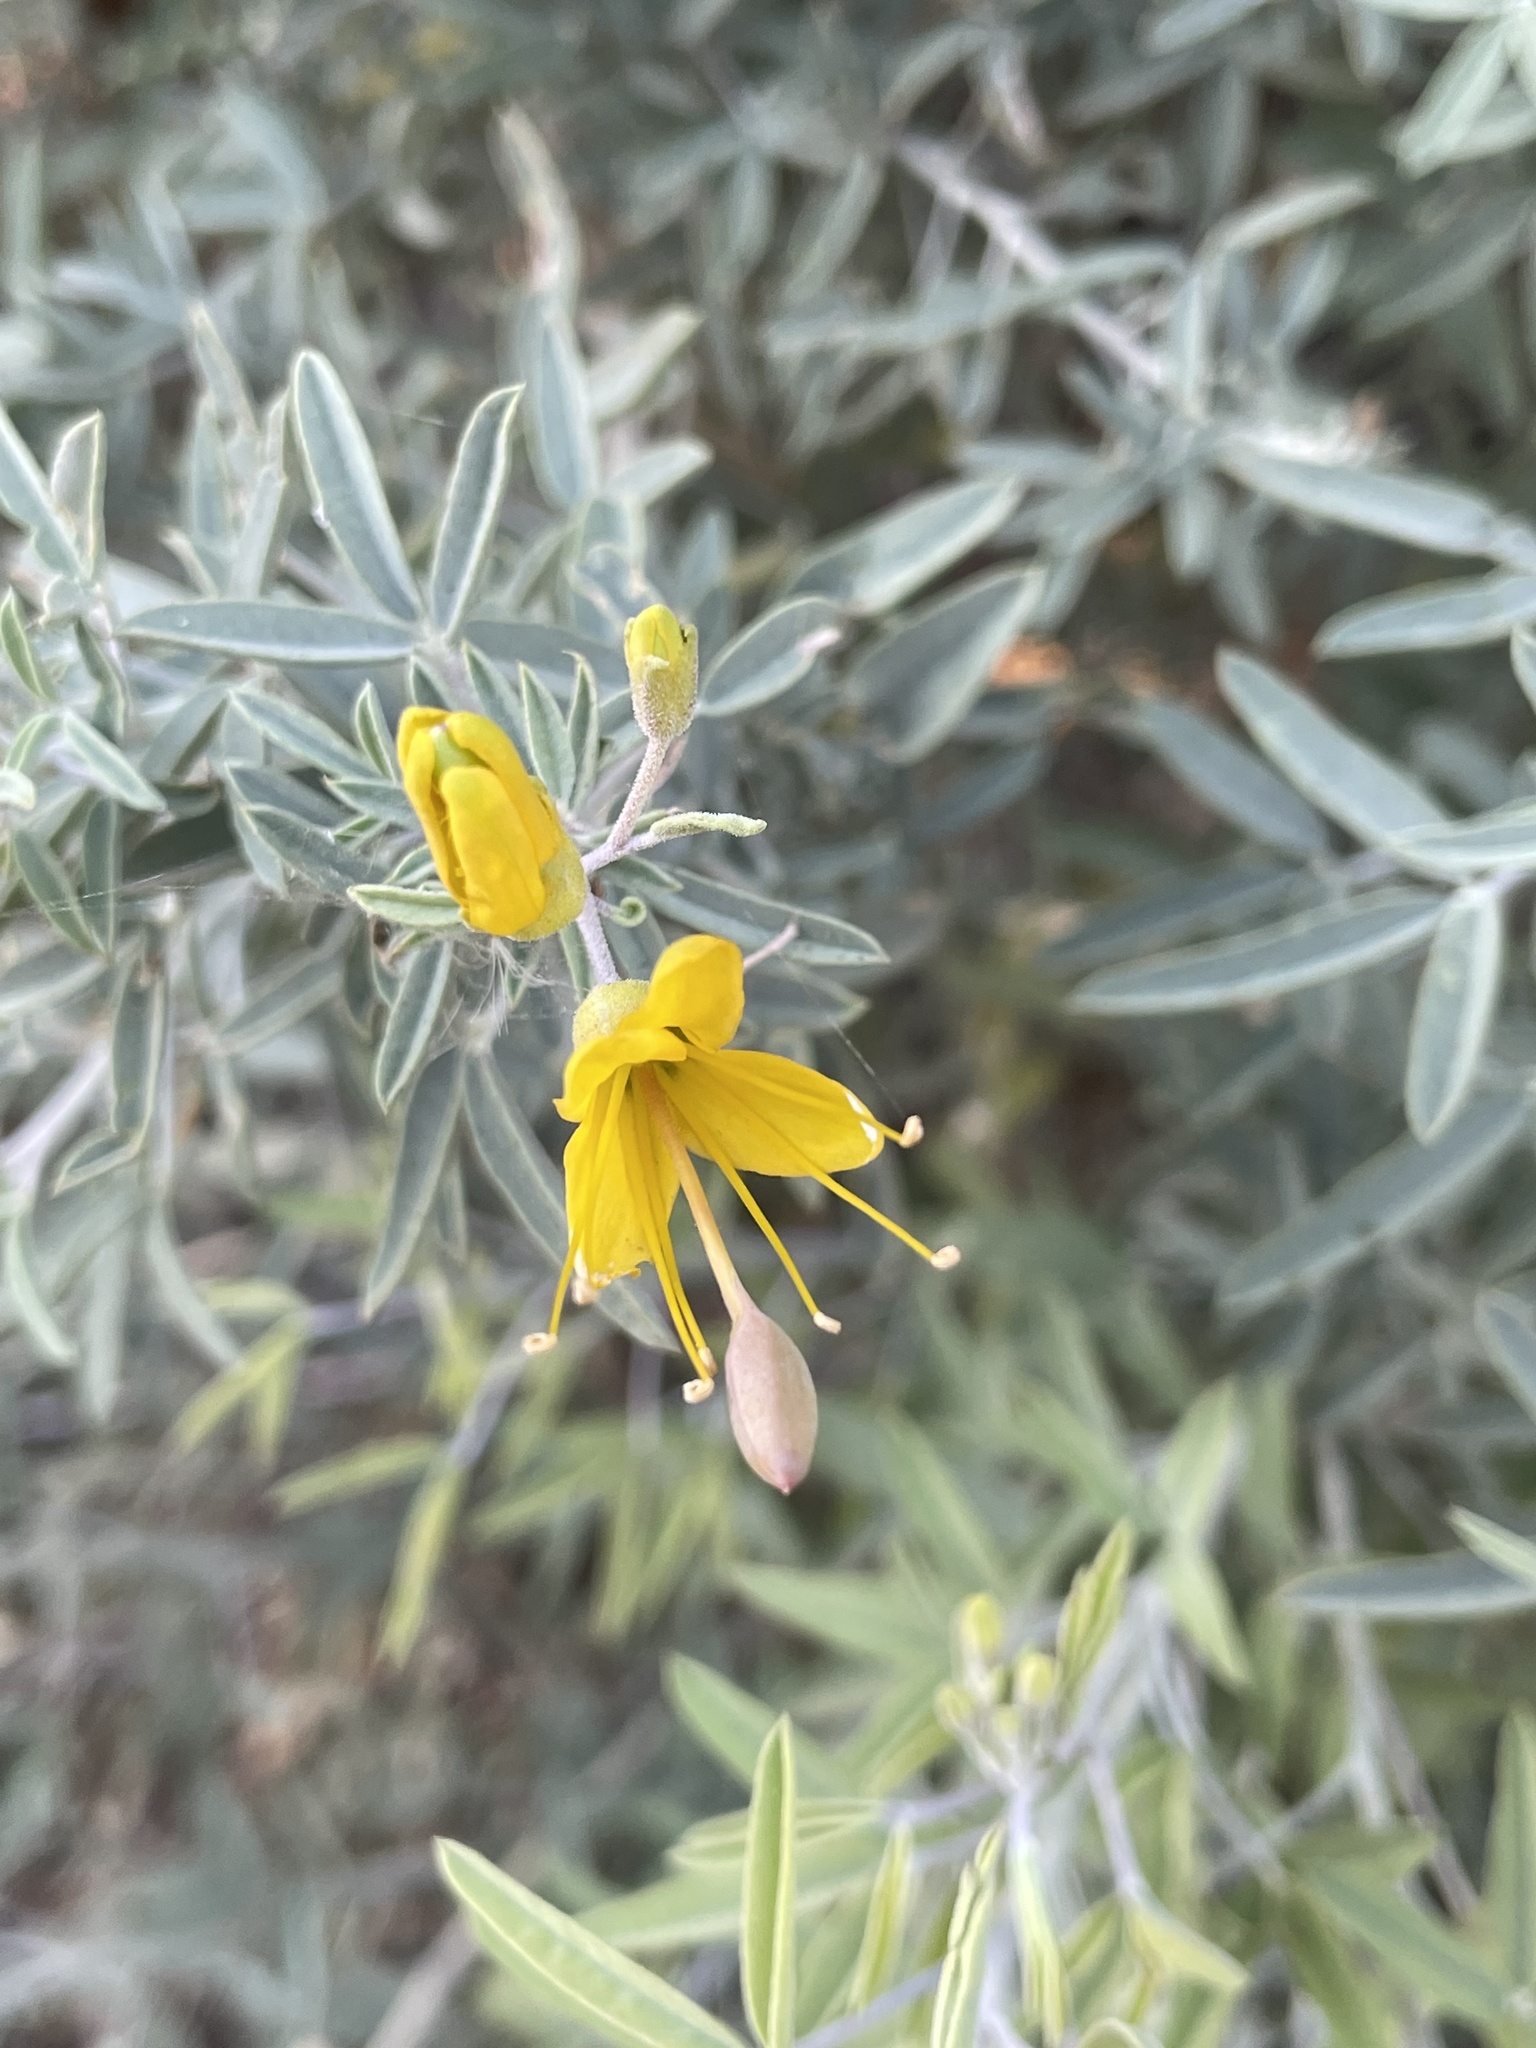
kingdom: Plantae
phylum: Tracheophyta
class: Magnoliopsida
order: Brassicales
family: Cleomaceae
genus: Cleomella
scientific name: Cleomella arborea
